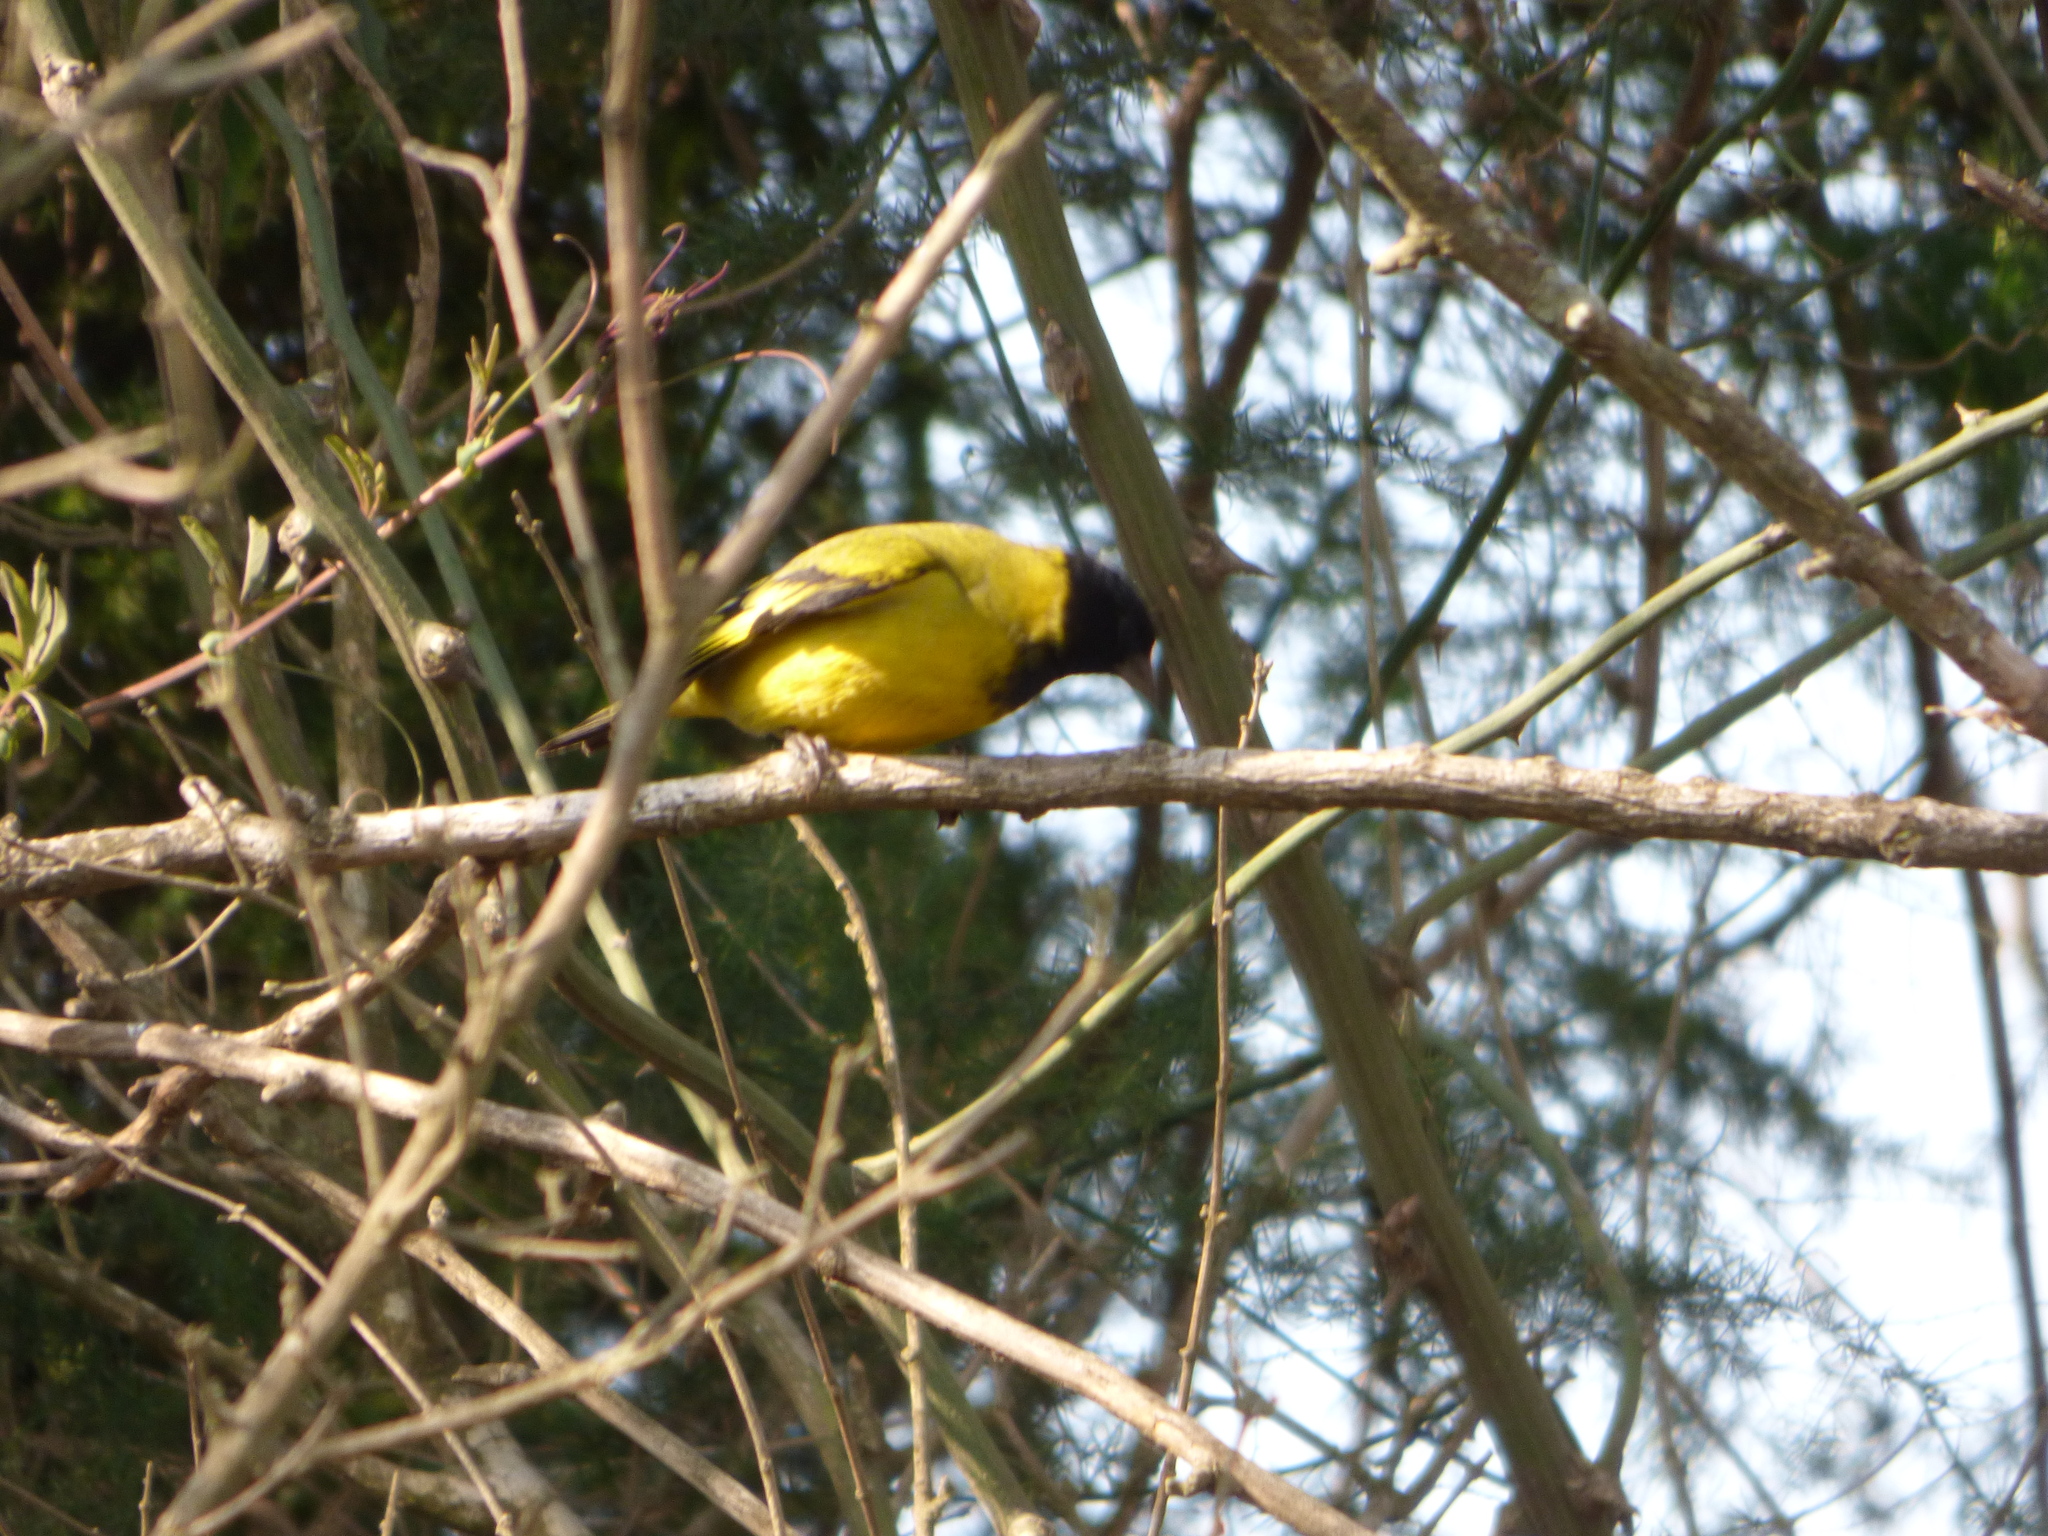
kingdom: Animalia
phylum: Chordata
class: Aves
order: Passeriformes
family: Fringillidae
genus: Spinus
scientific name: Spinus magellanicus
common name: Hooded siskin
